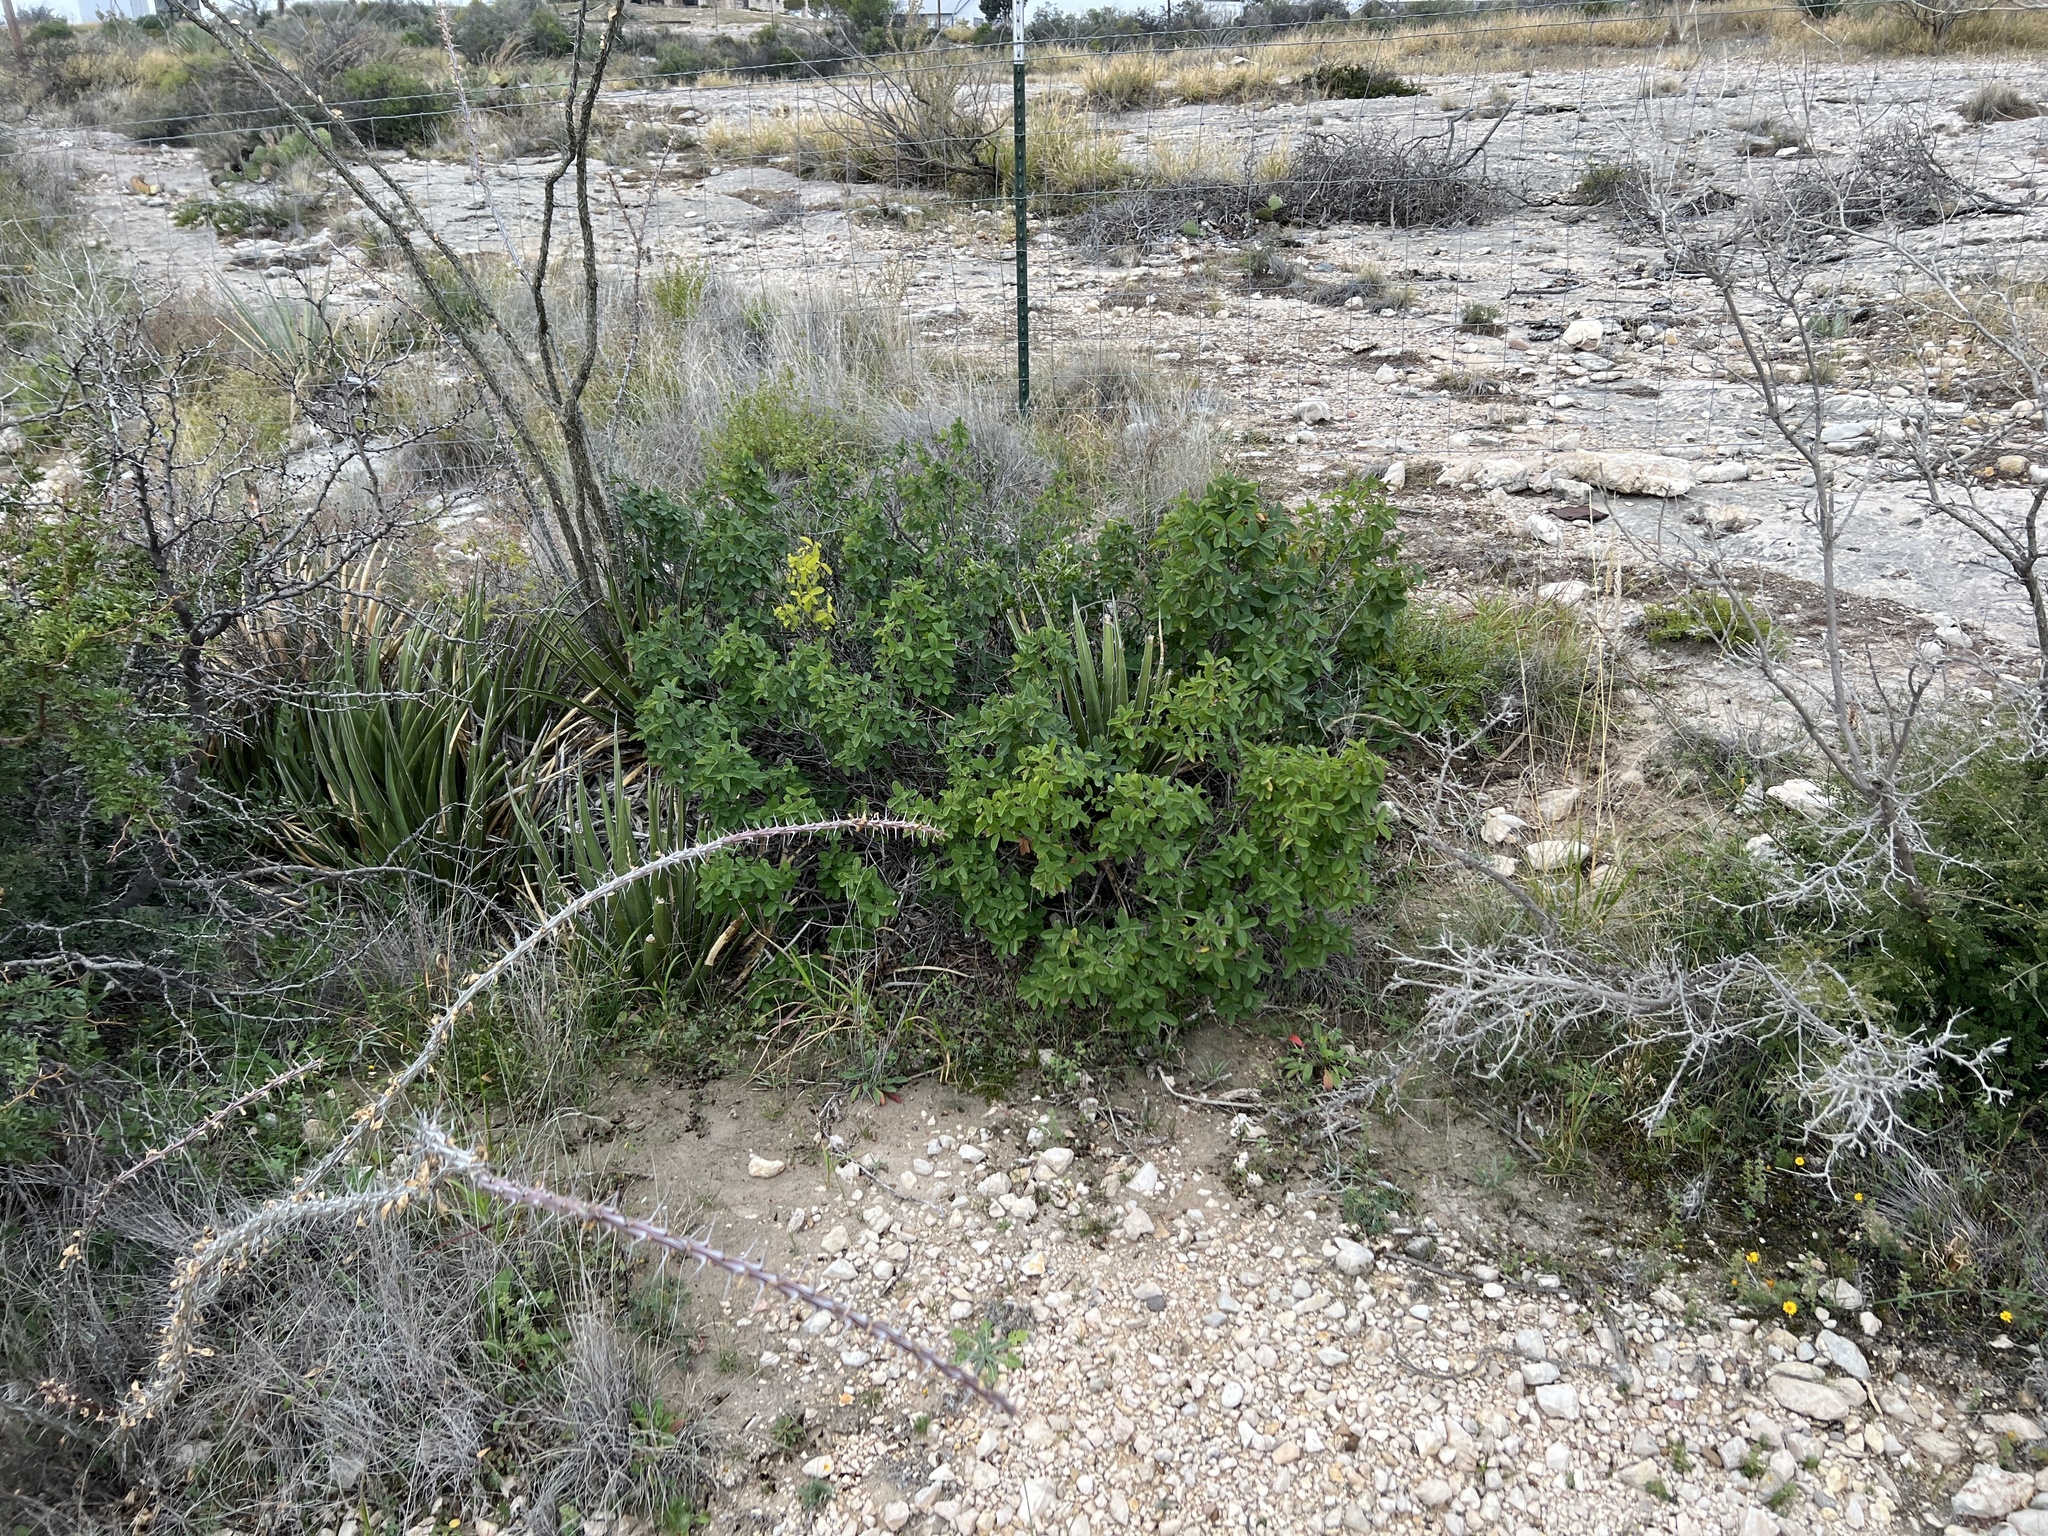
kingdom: Plantae
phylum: Tracheophyta
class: Magnoliopsida
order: Rosales
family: Rhamnaceae
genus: Karwinskia
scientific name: Karwinskia humboldtiana
